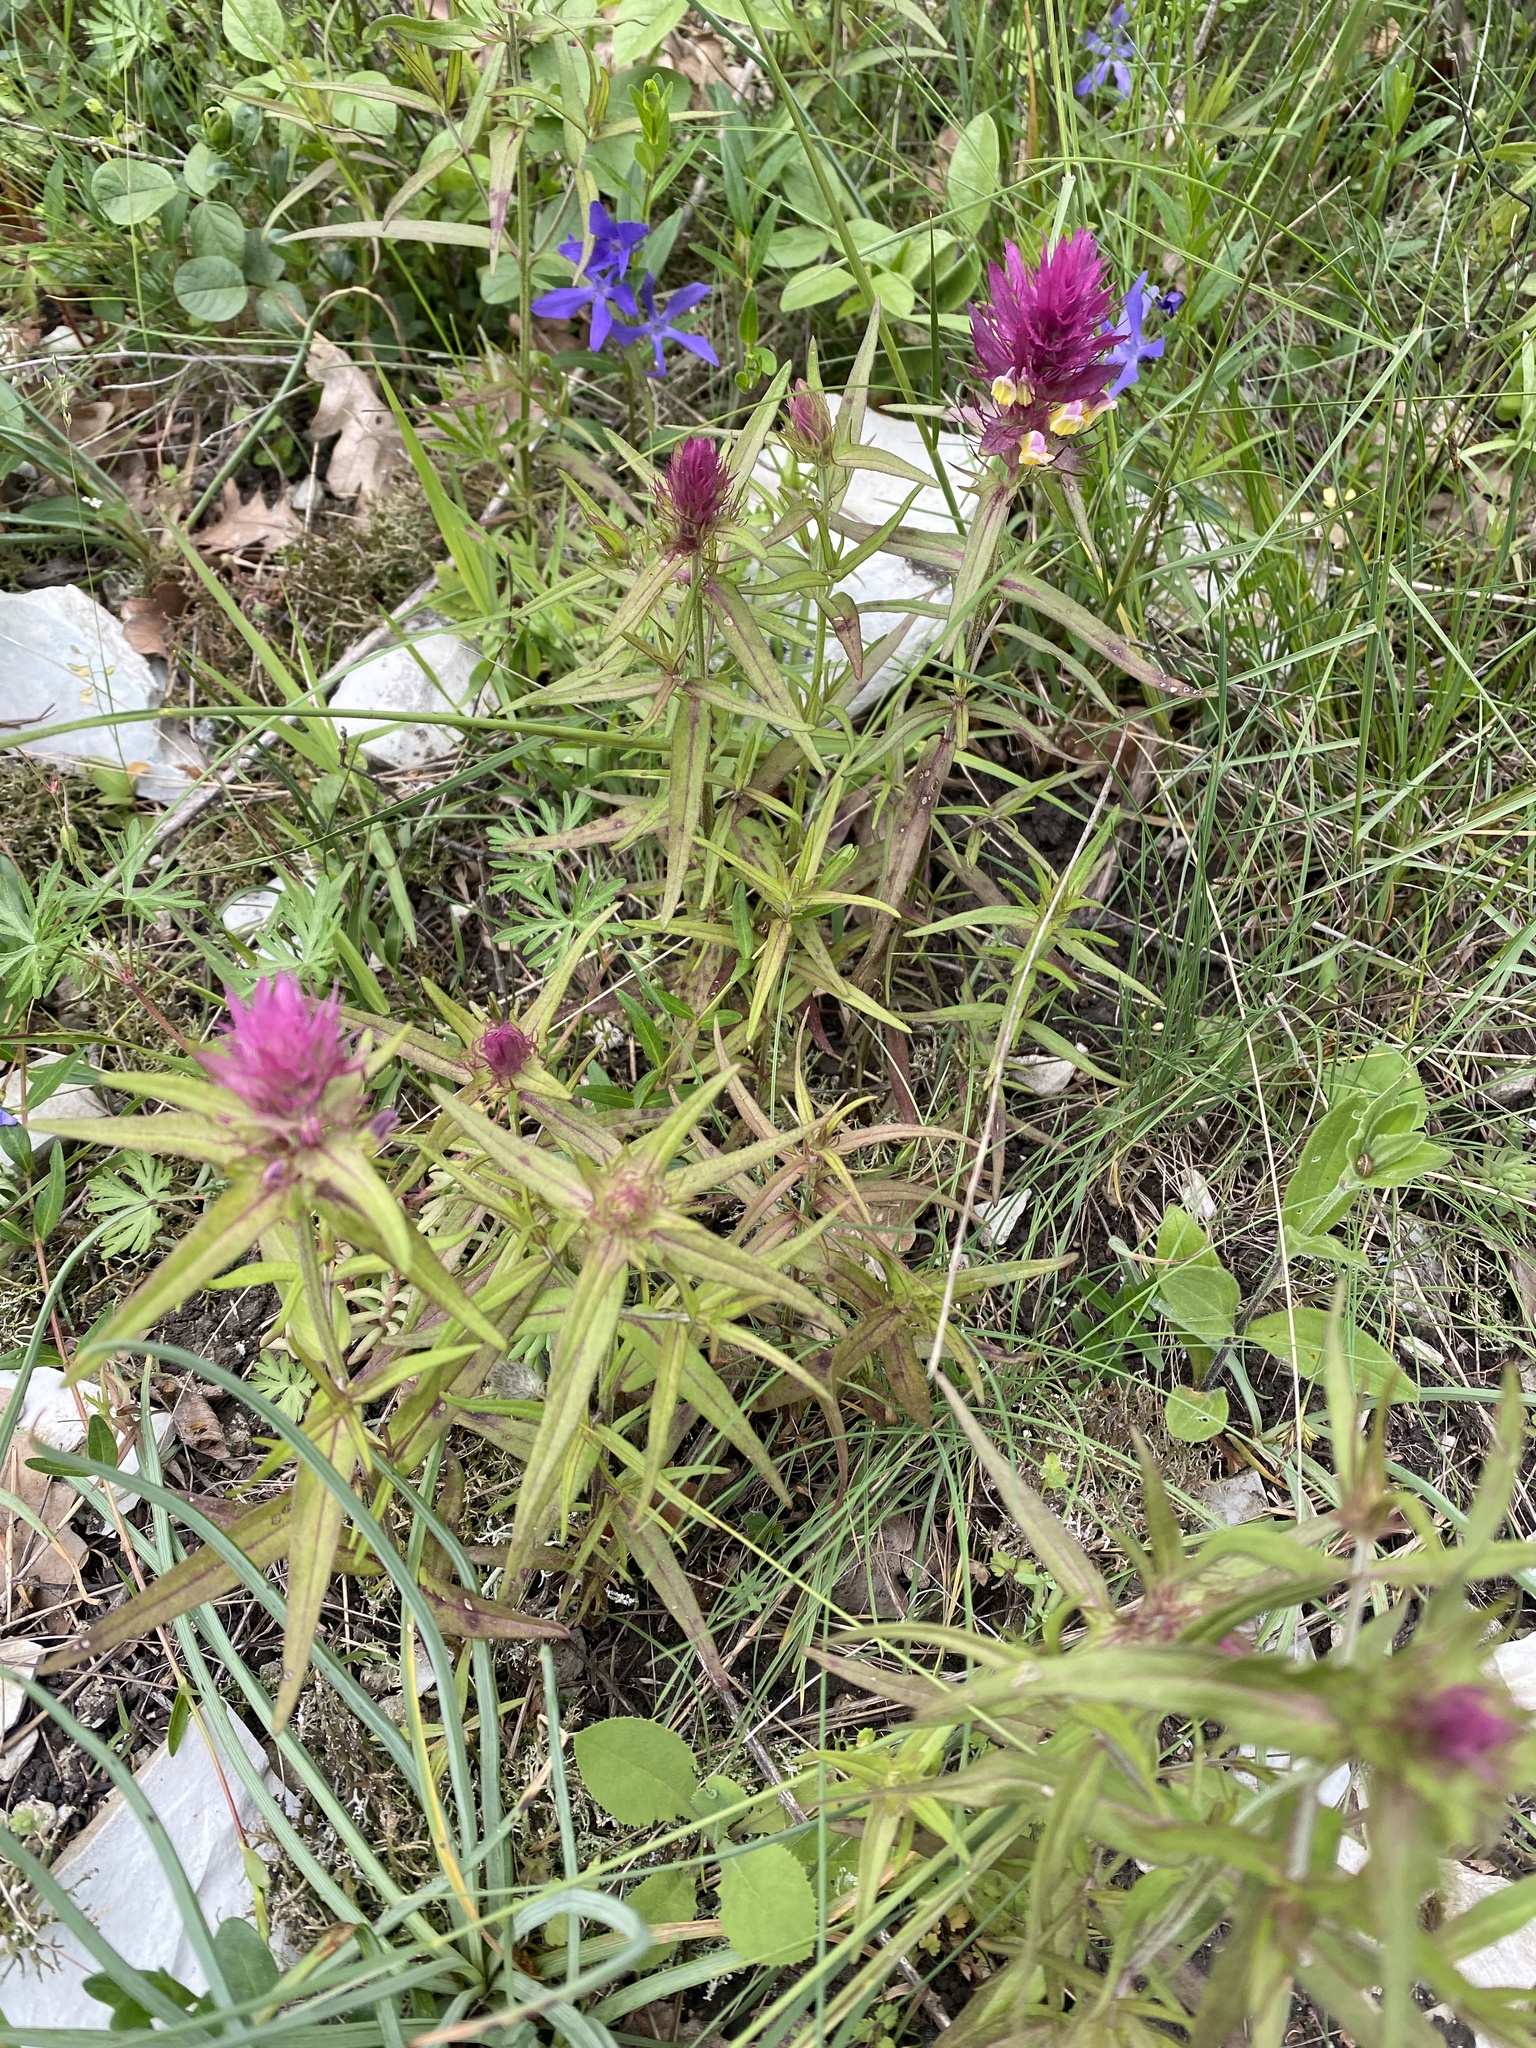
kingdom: Plantae
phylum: Tracheophyta
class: Magnoliopsida
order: Lamiales
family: Orobanchaceae
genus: Melampyrum
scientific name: Melampyrum arvense
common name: Field cow-wheat
